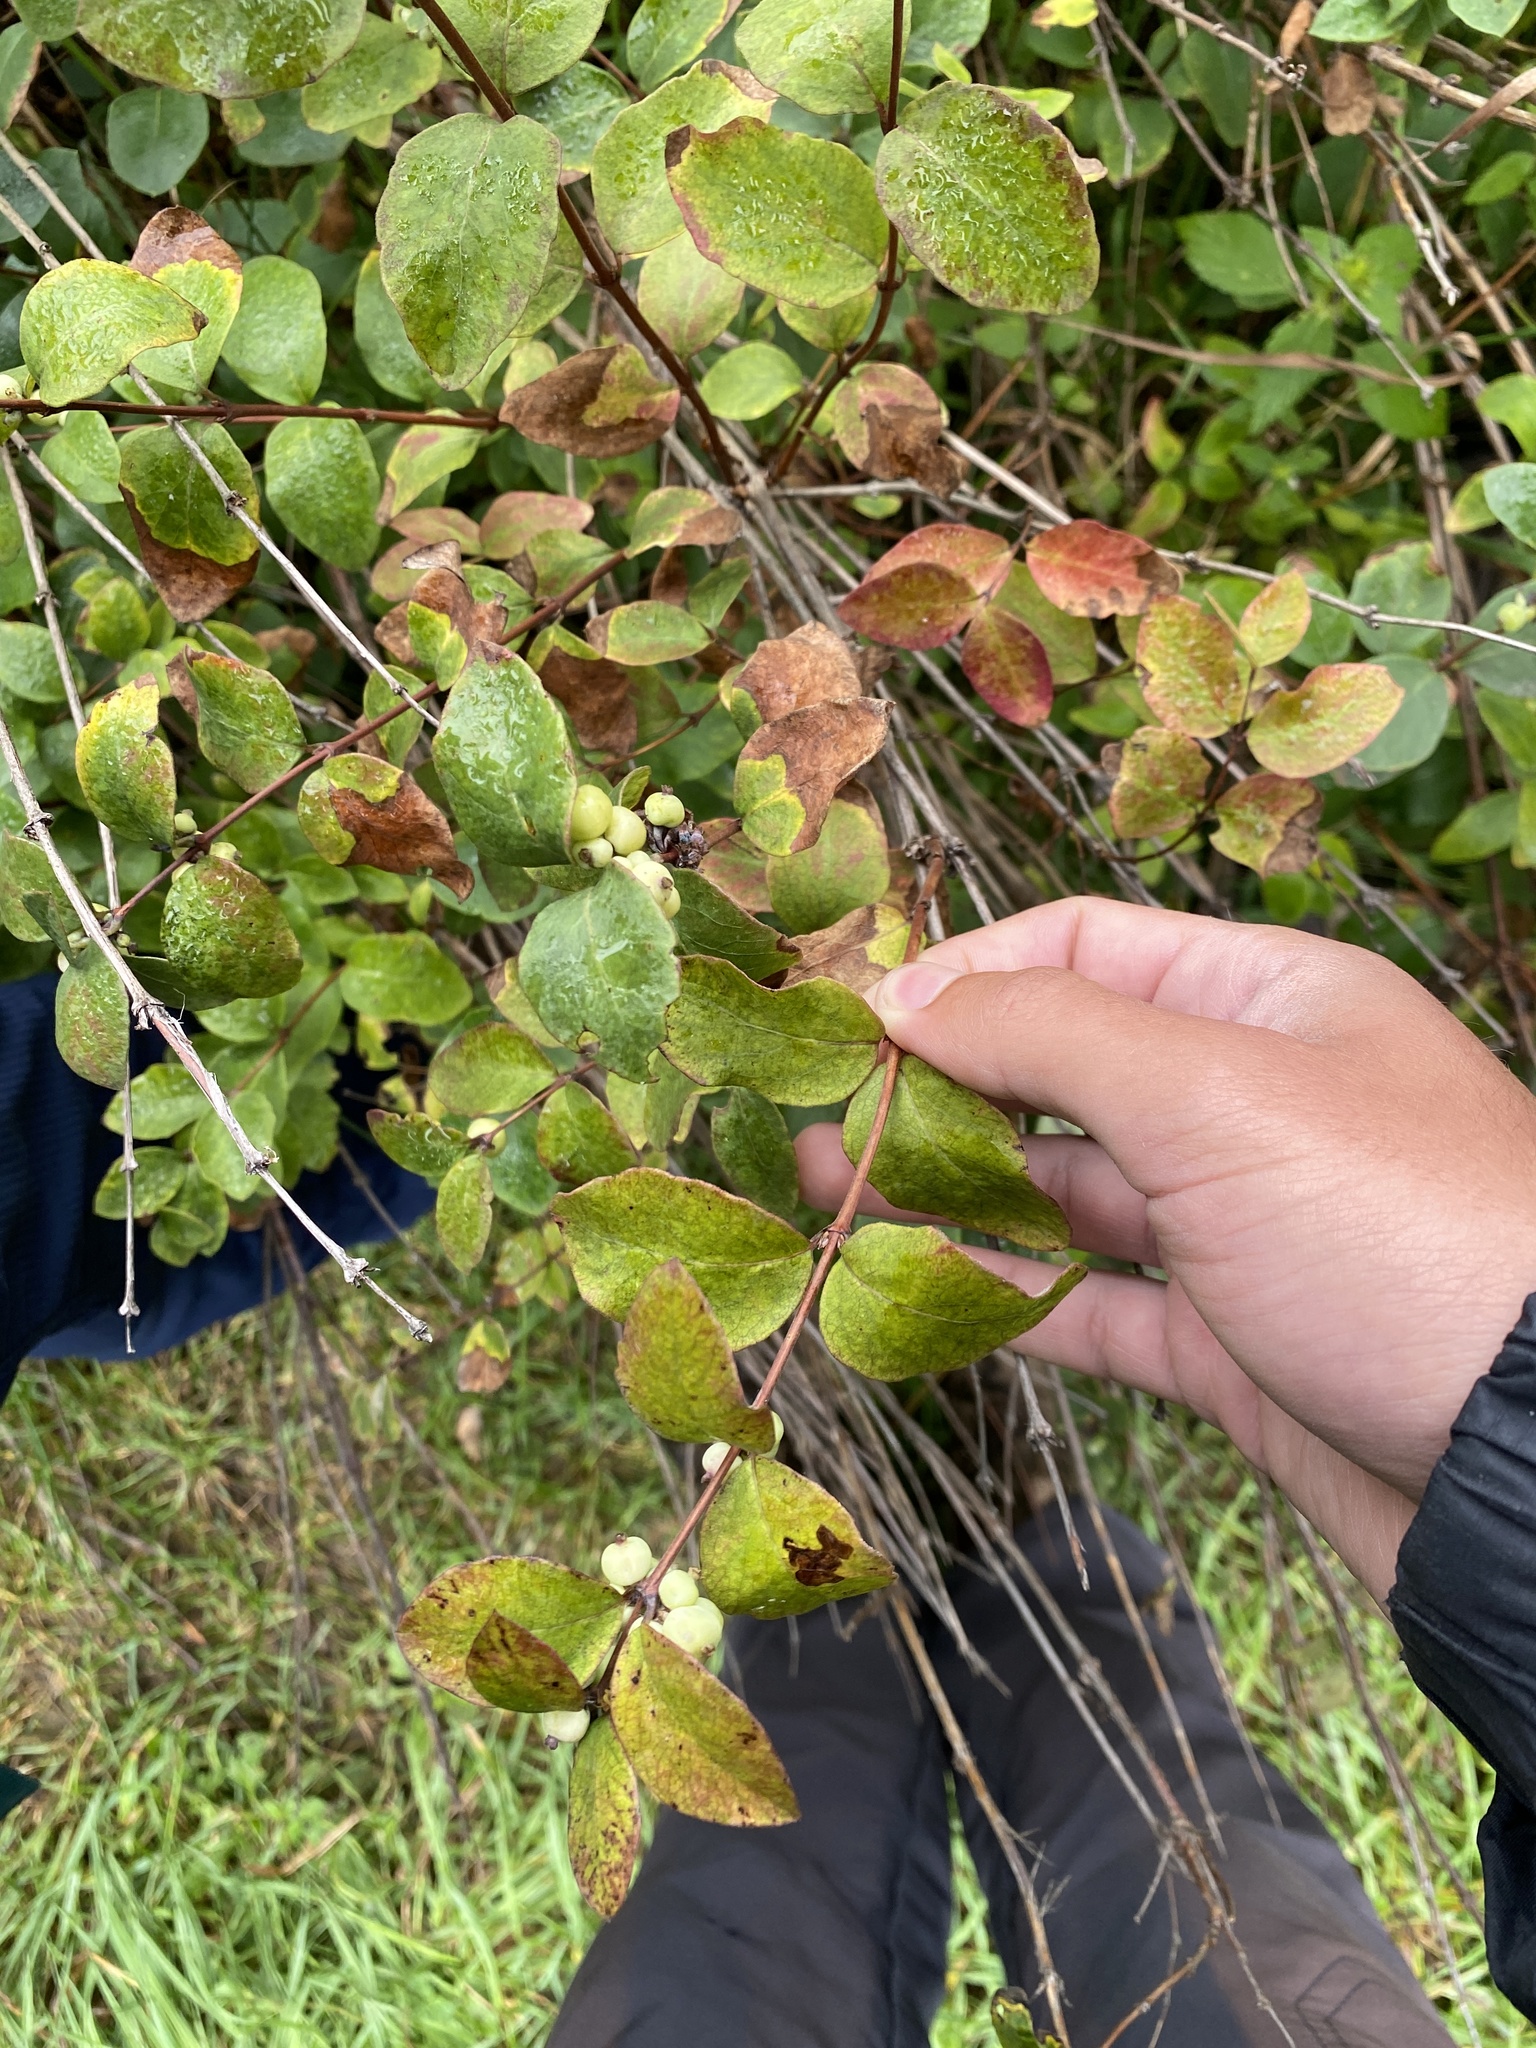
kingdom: Plantae
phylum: Tracheophyta
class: Magnoliopsida
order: Dipsacales
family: Caprifoliaceae
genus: Symphoricarpos
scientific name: Symphoricarpos albus
